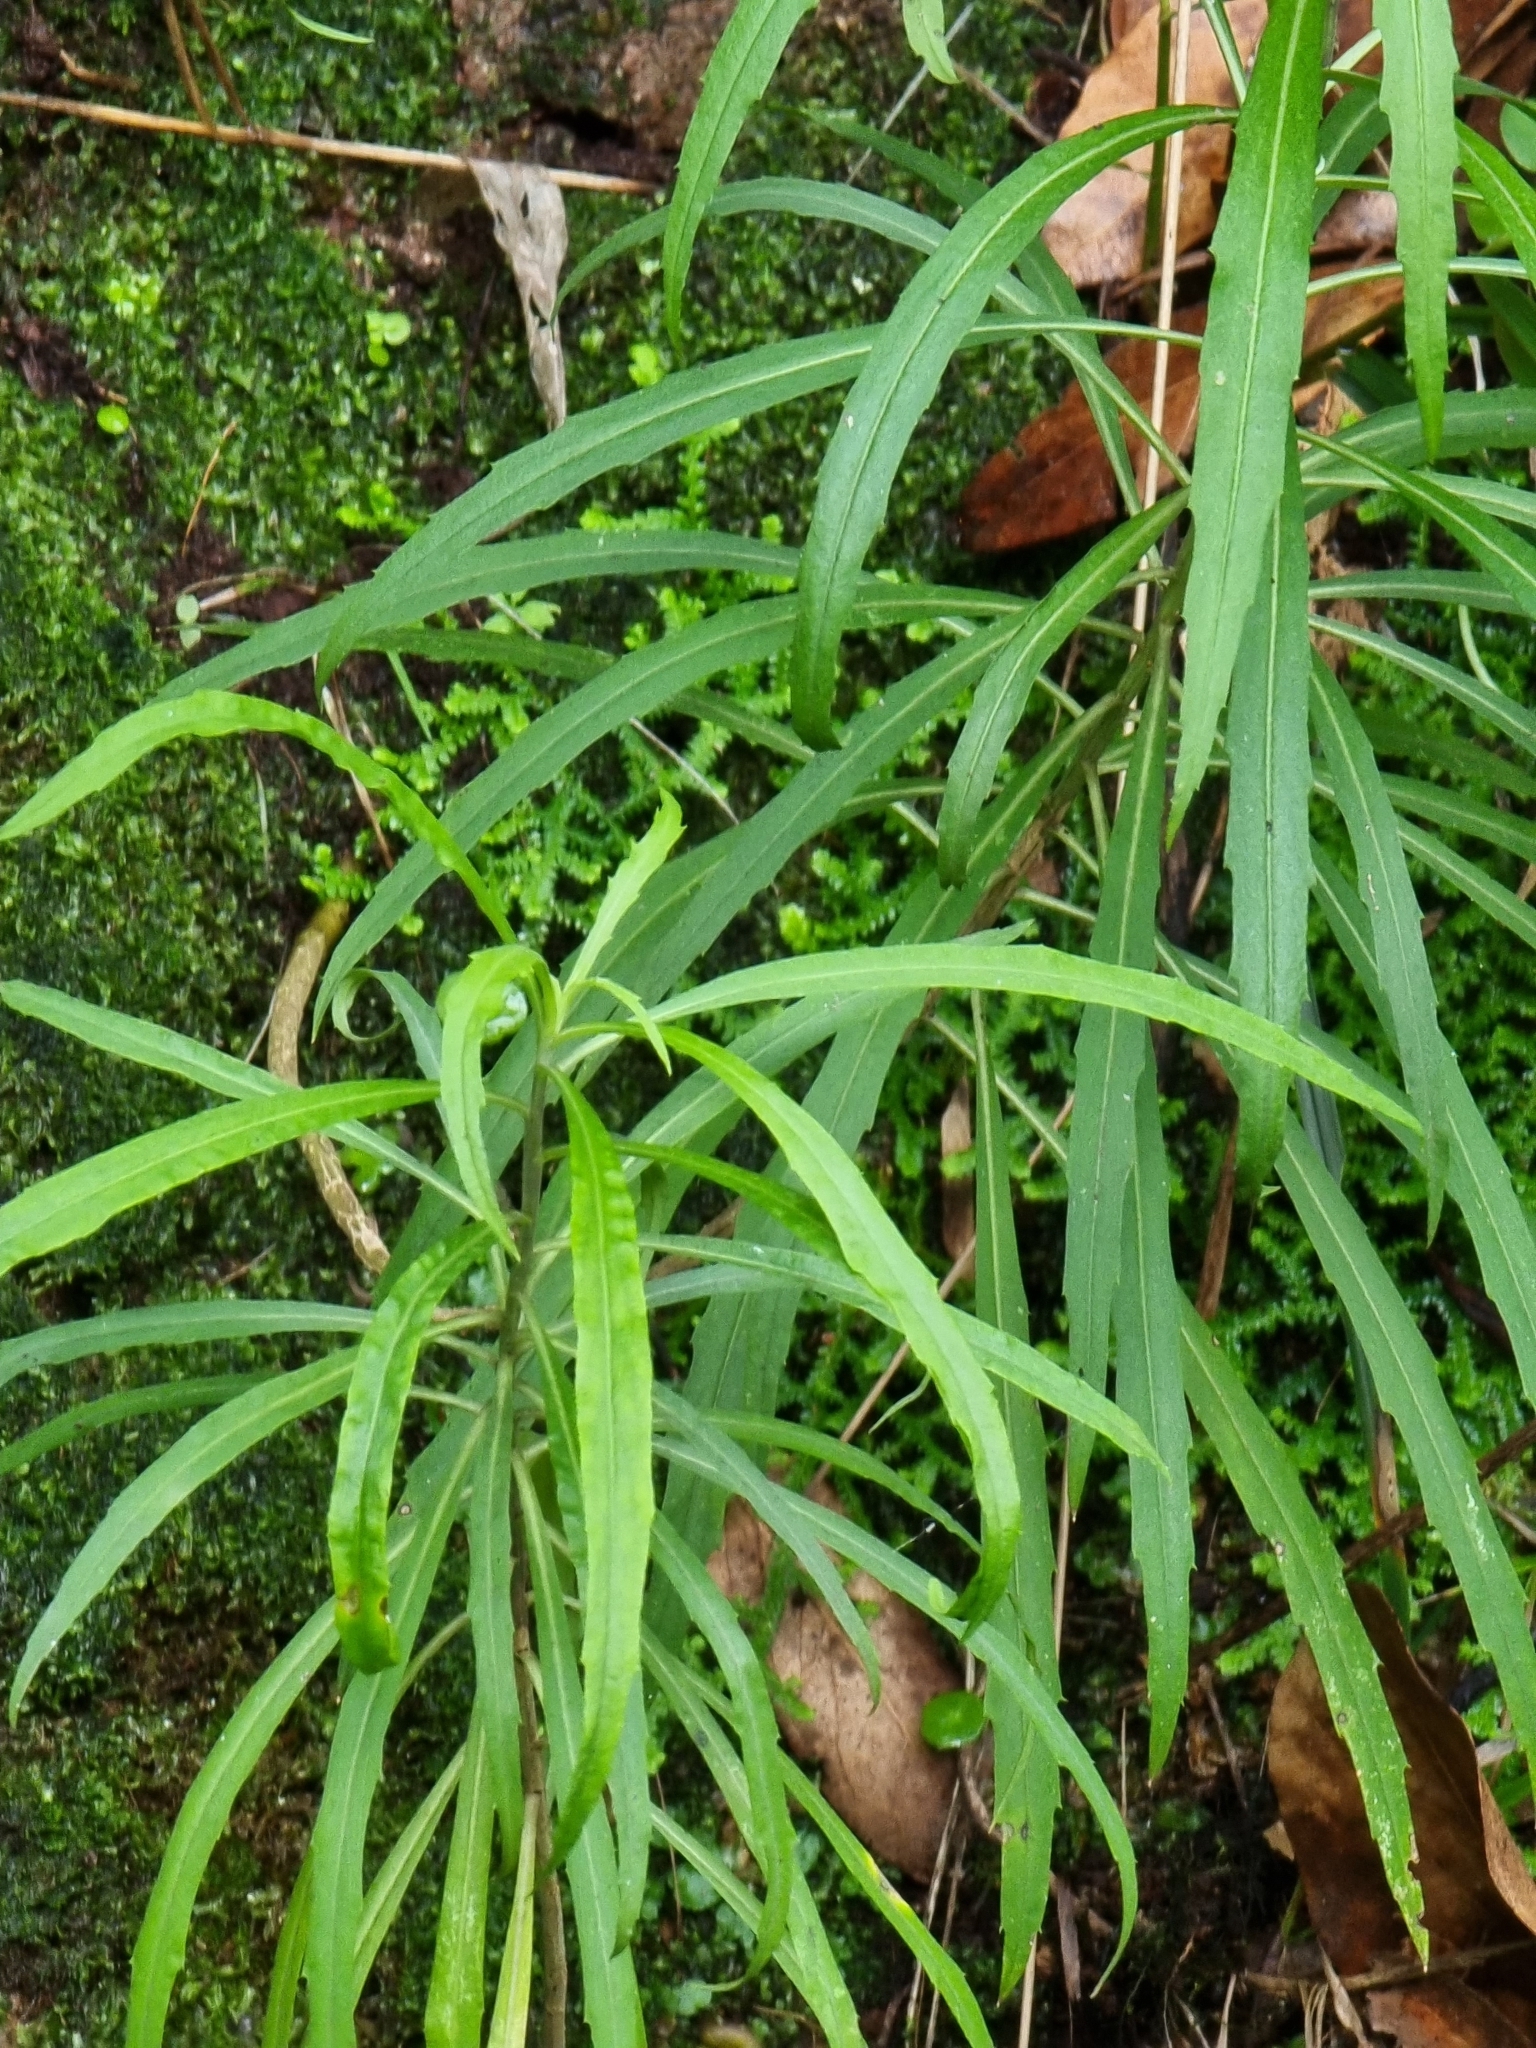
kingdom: Plantae
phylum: Tracheophyta
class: Magnoliopsida
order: Brassicales
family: Brassicaceae
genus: Erysimum
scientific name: Erysimum bicolor
